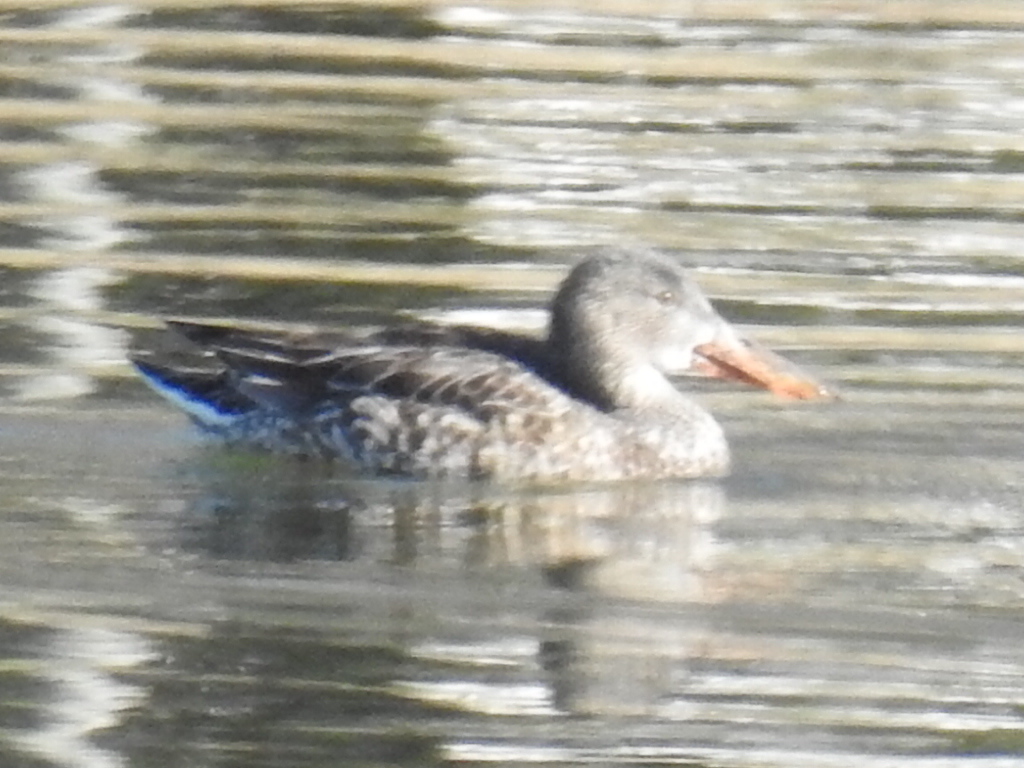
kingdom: Animalia
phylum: Chordata
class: Aves
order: Anseriformes
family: Anatidae
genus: Spatula
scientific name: Spatula clypeata
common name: Northern shoveler
